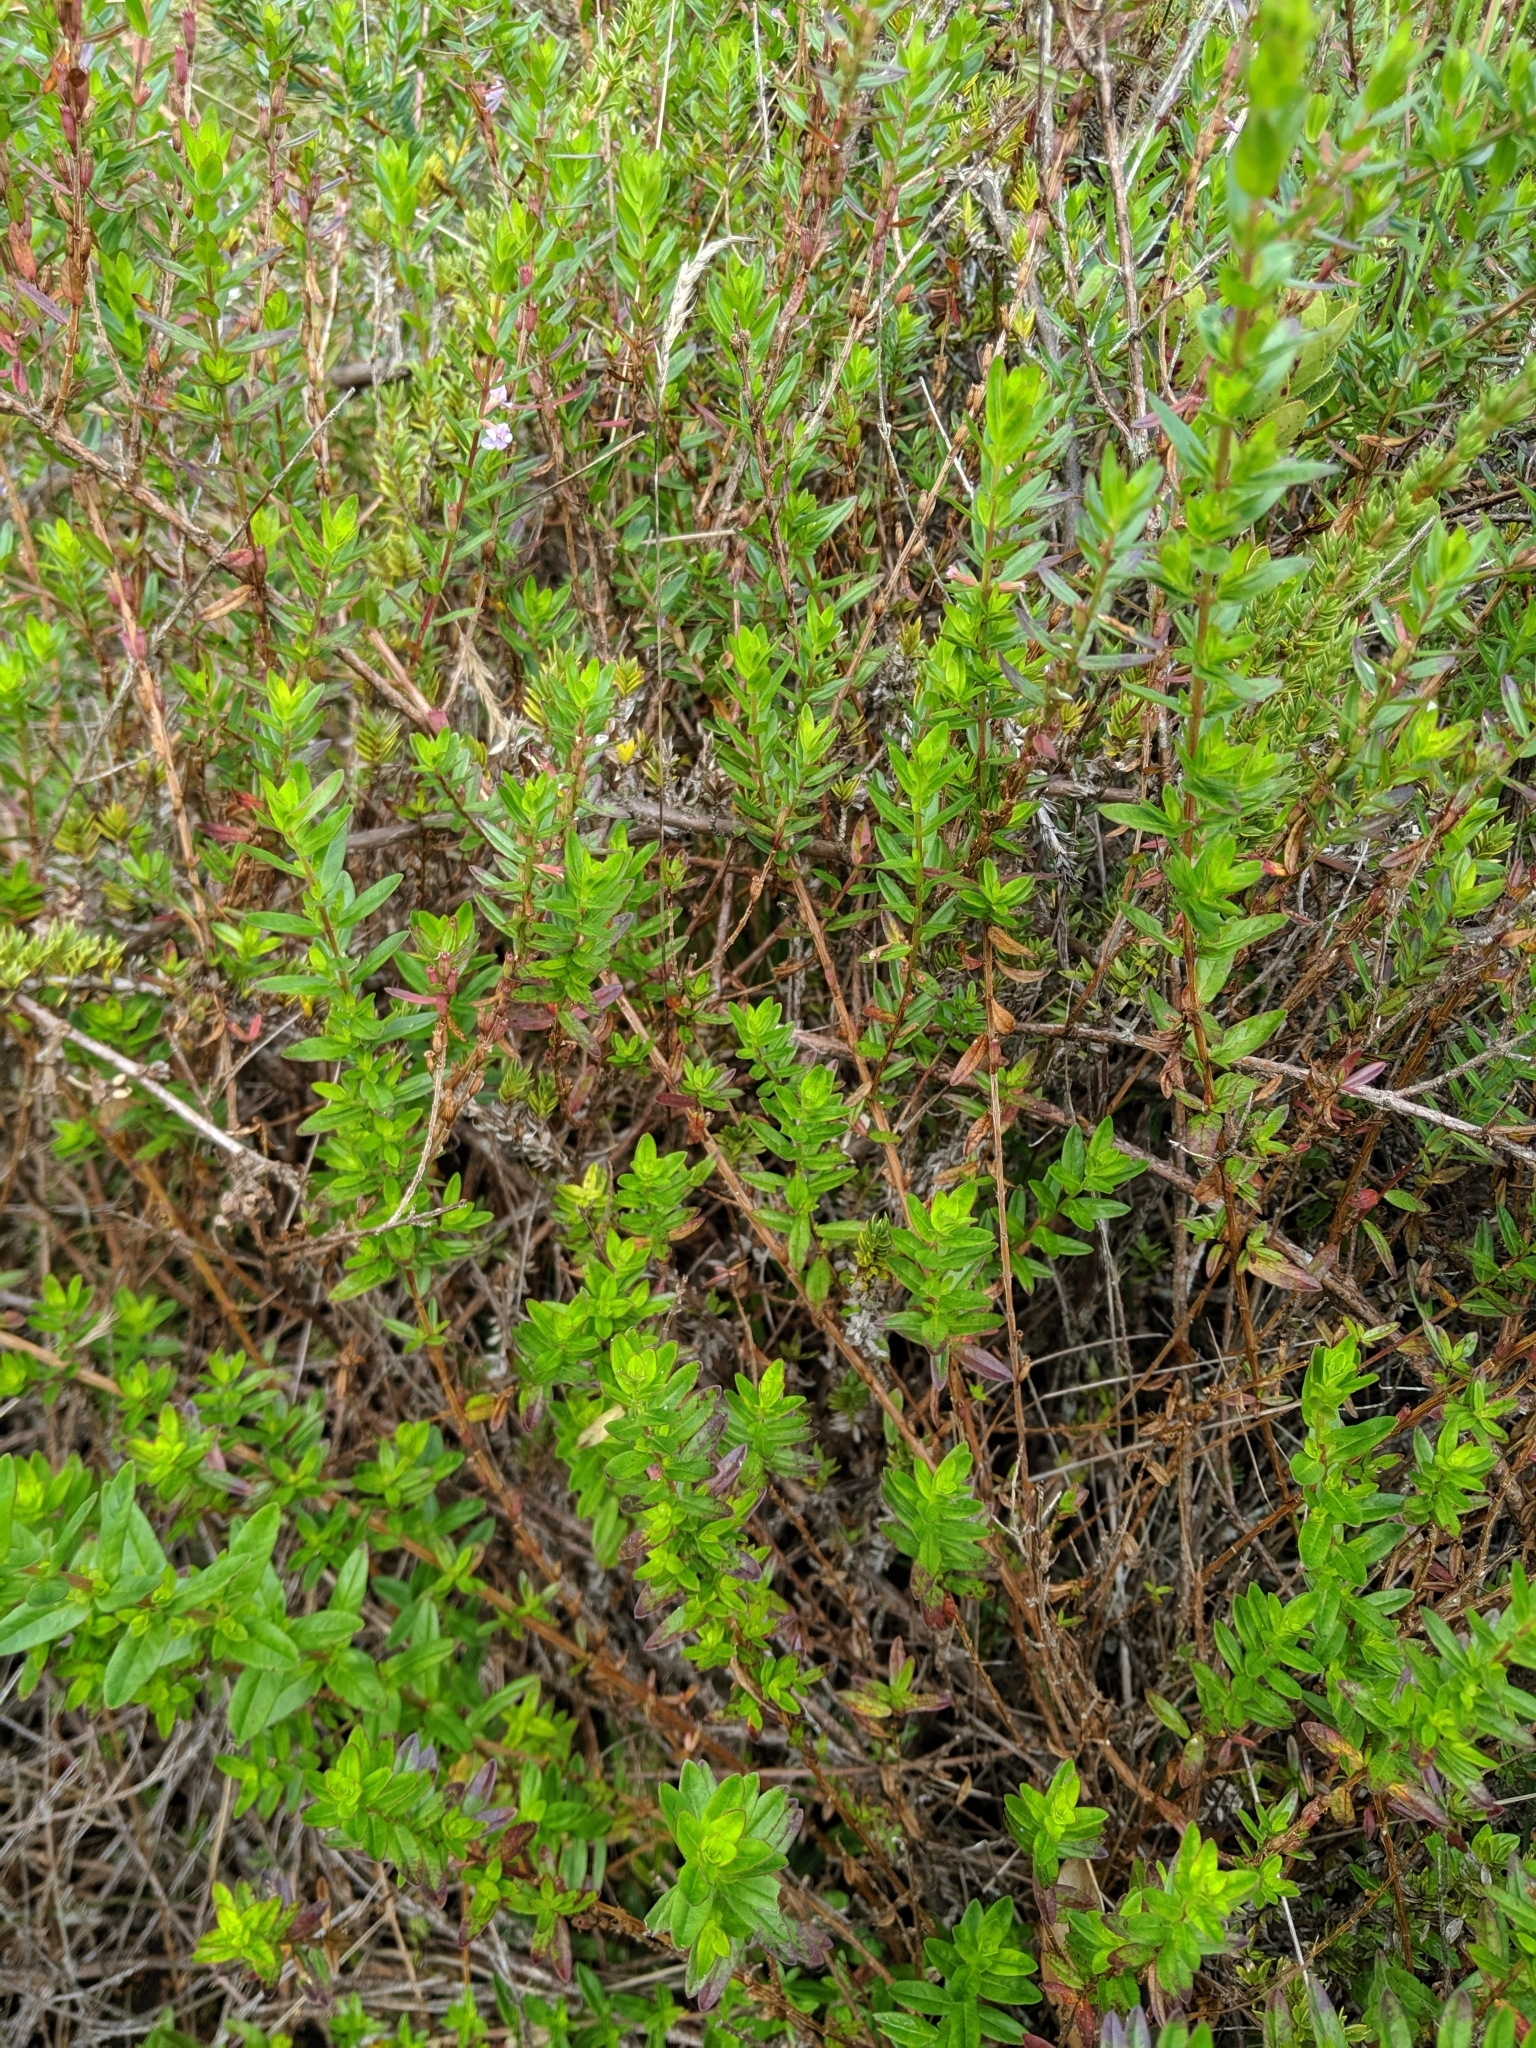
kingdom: Plantae
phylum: Tracheophyta
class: Magnoliopsida
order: Myrtales
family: Lythraceae
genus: Lythrum
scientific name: Lythrum maritimum
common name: Pukamole
